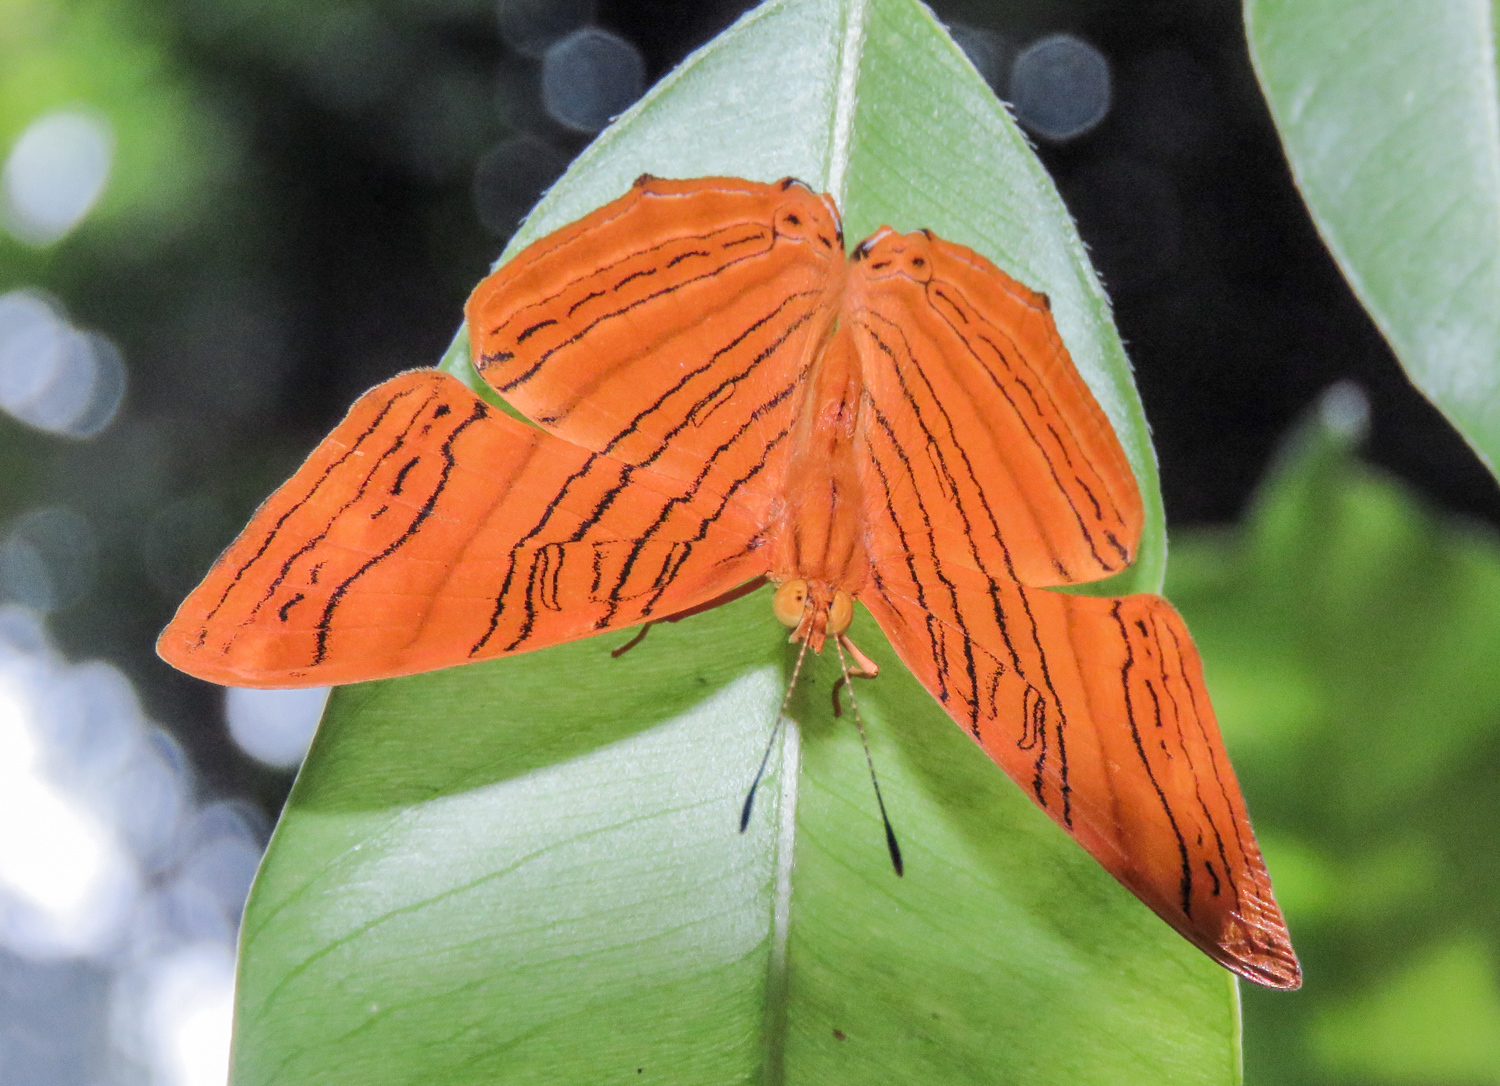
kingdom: Animalia
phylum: Arthropoda
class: Insecta
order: Lepidoptera
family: Nymphalidae
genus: Chersonesia
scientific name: Chersonesia intermedia
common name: Intermediate maplet
